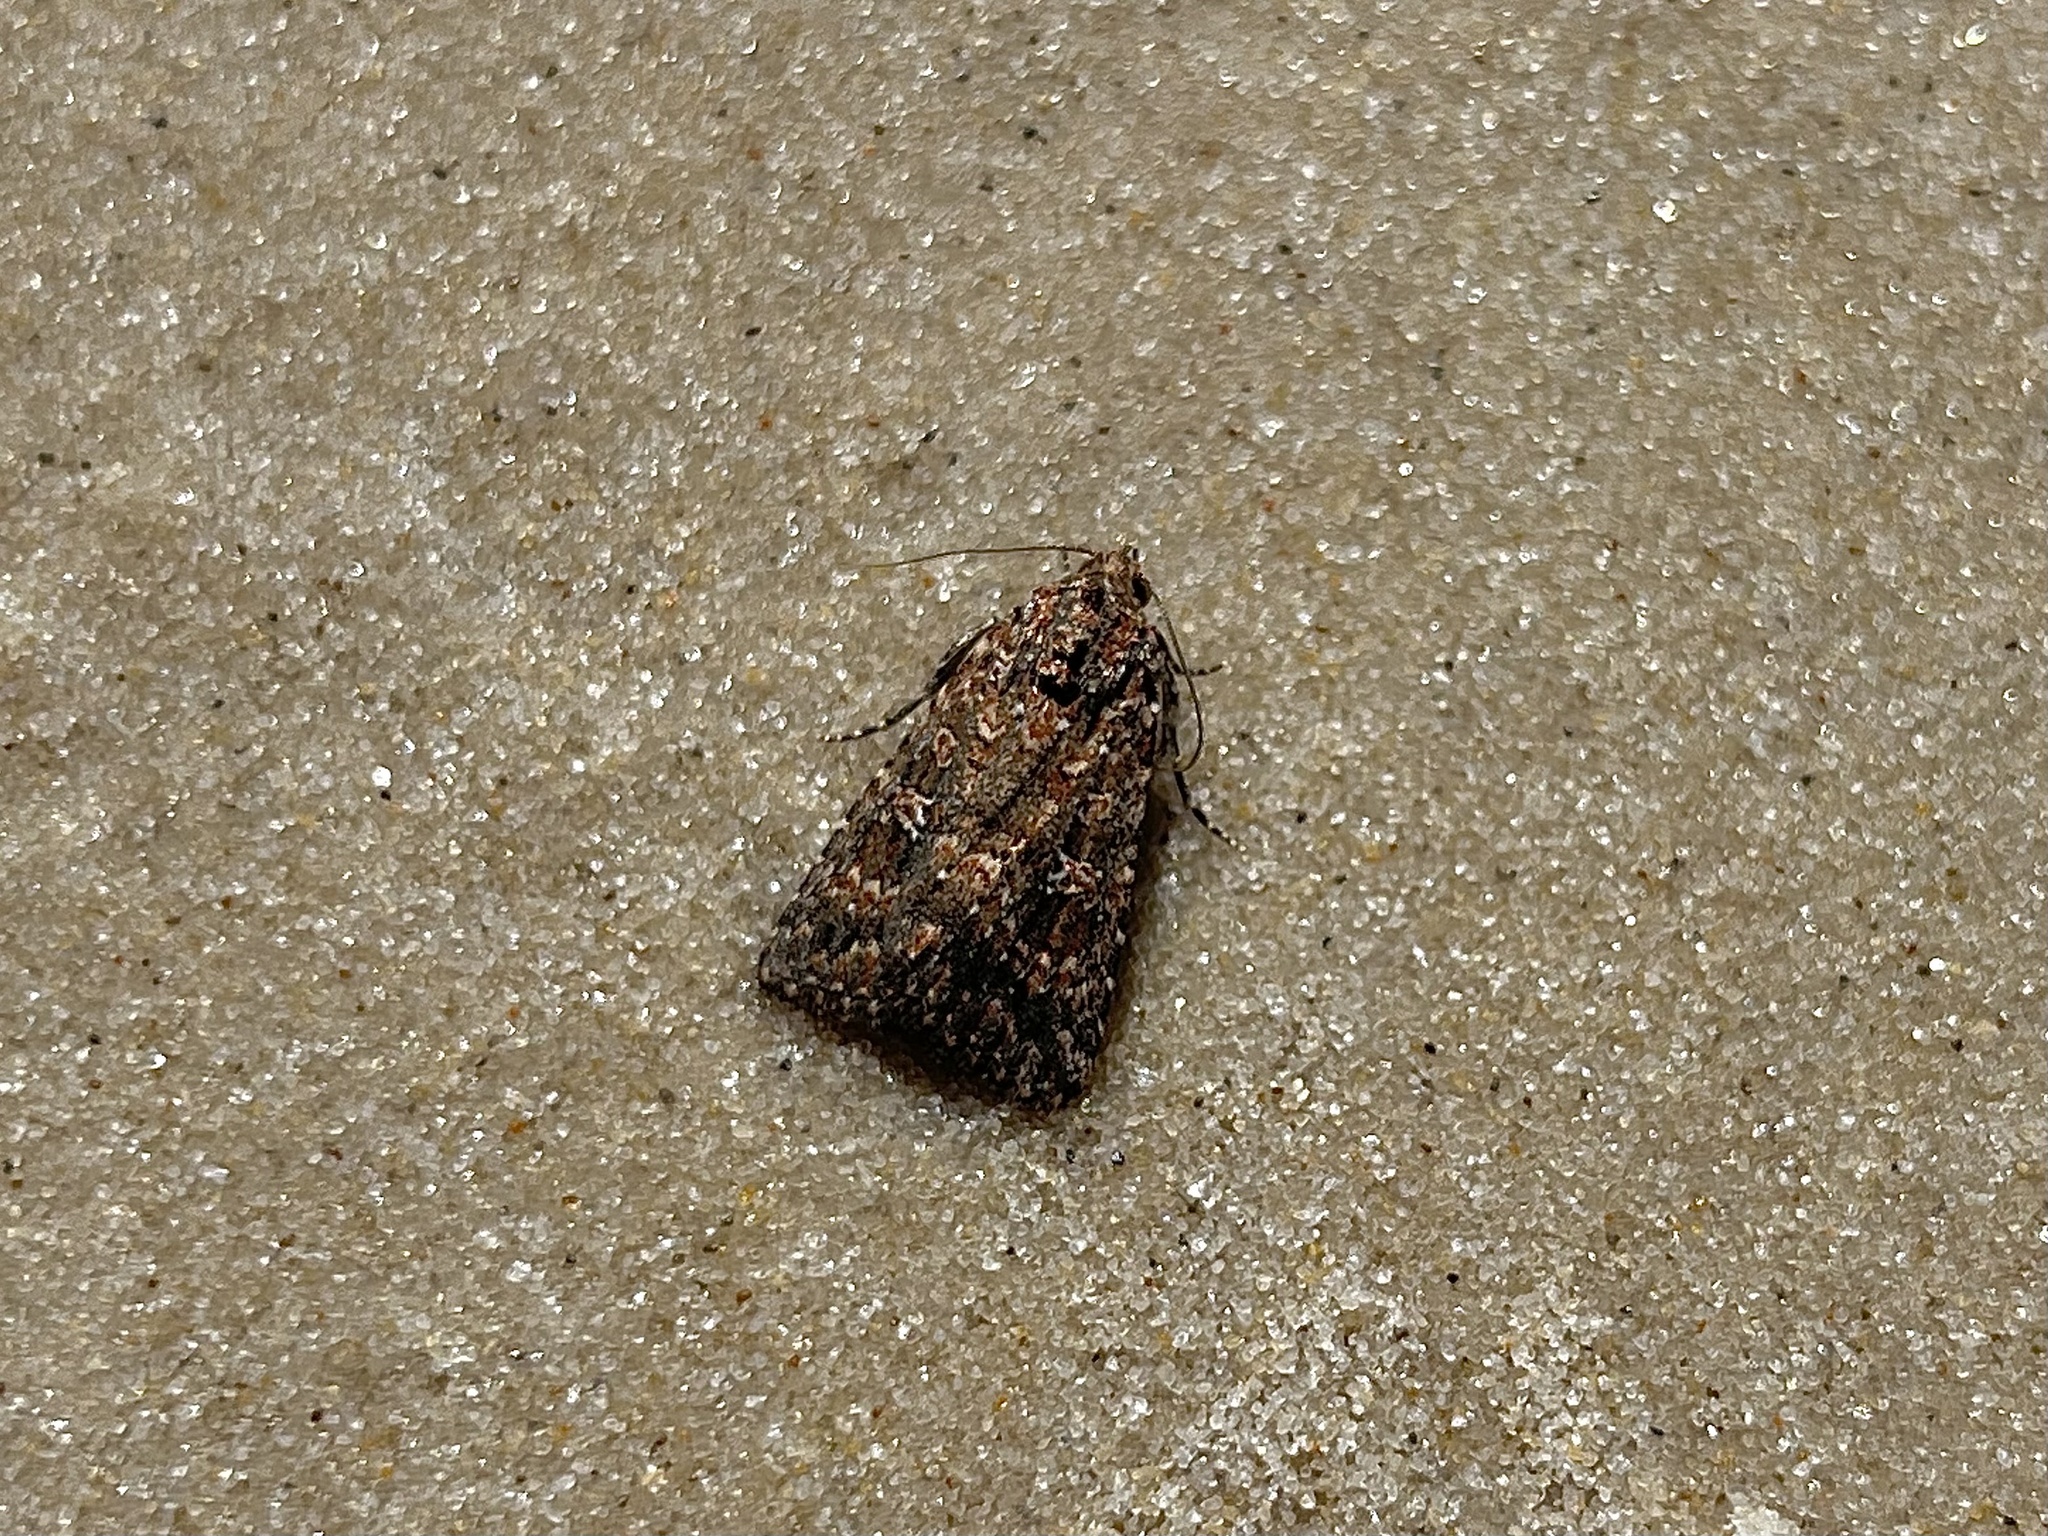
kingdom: Animalia
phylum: Arthropoda
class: Insecta
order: Lepidoptera
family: Noctuidae
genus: Hypoperigea
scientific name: Hypoperigea tonsa
